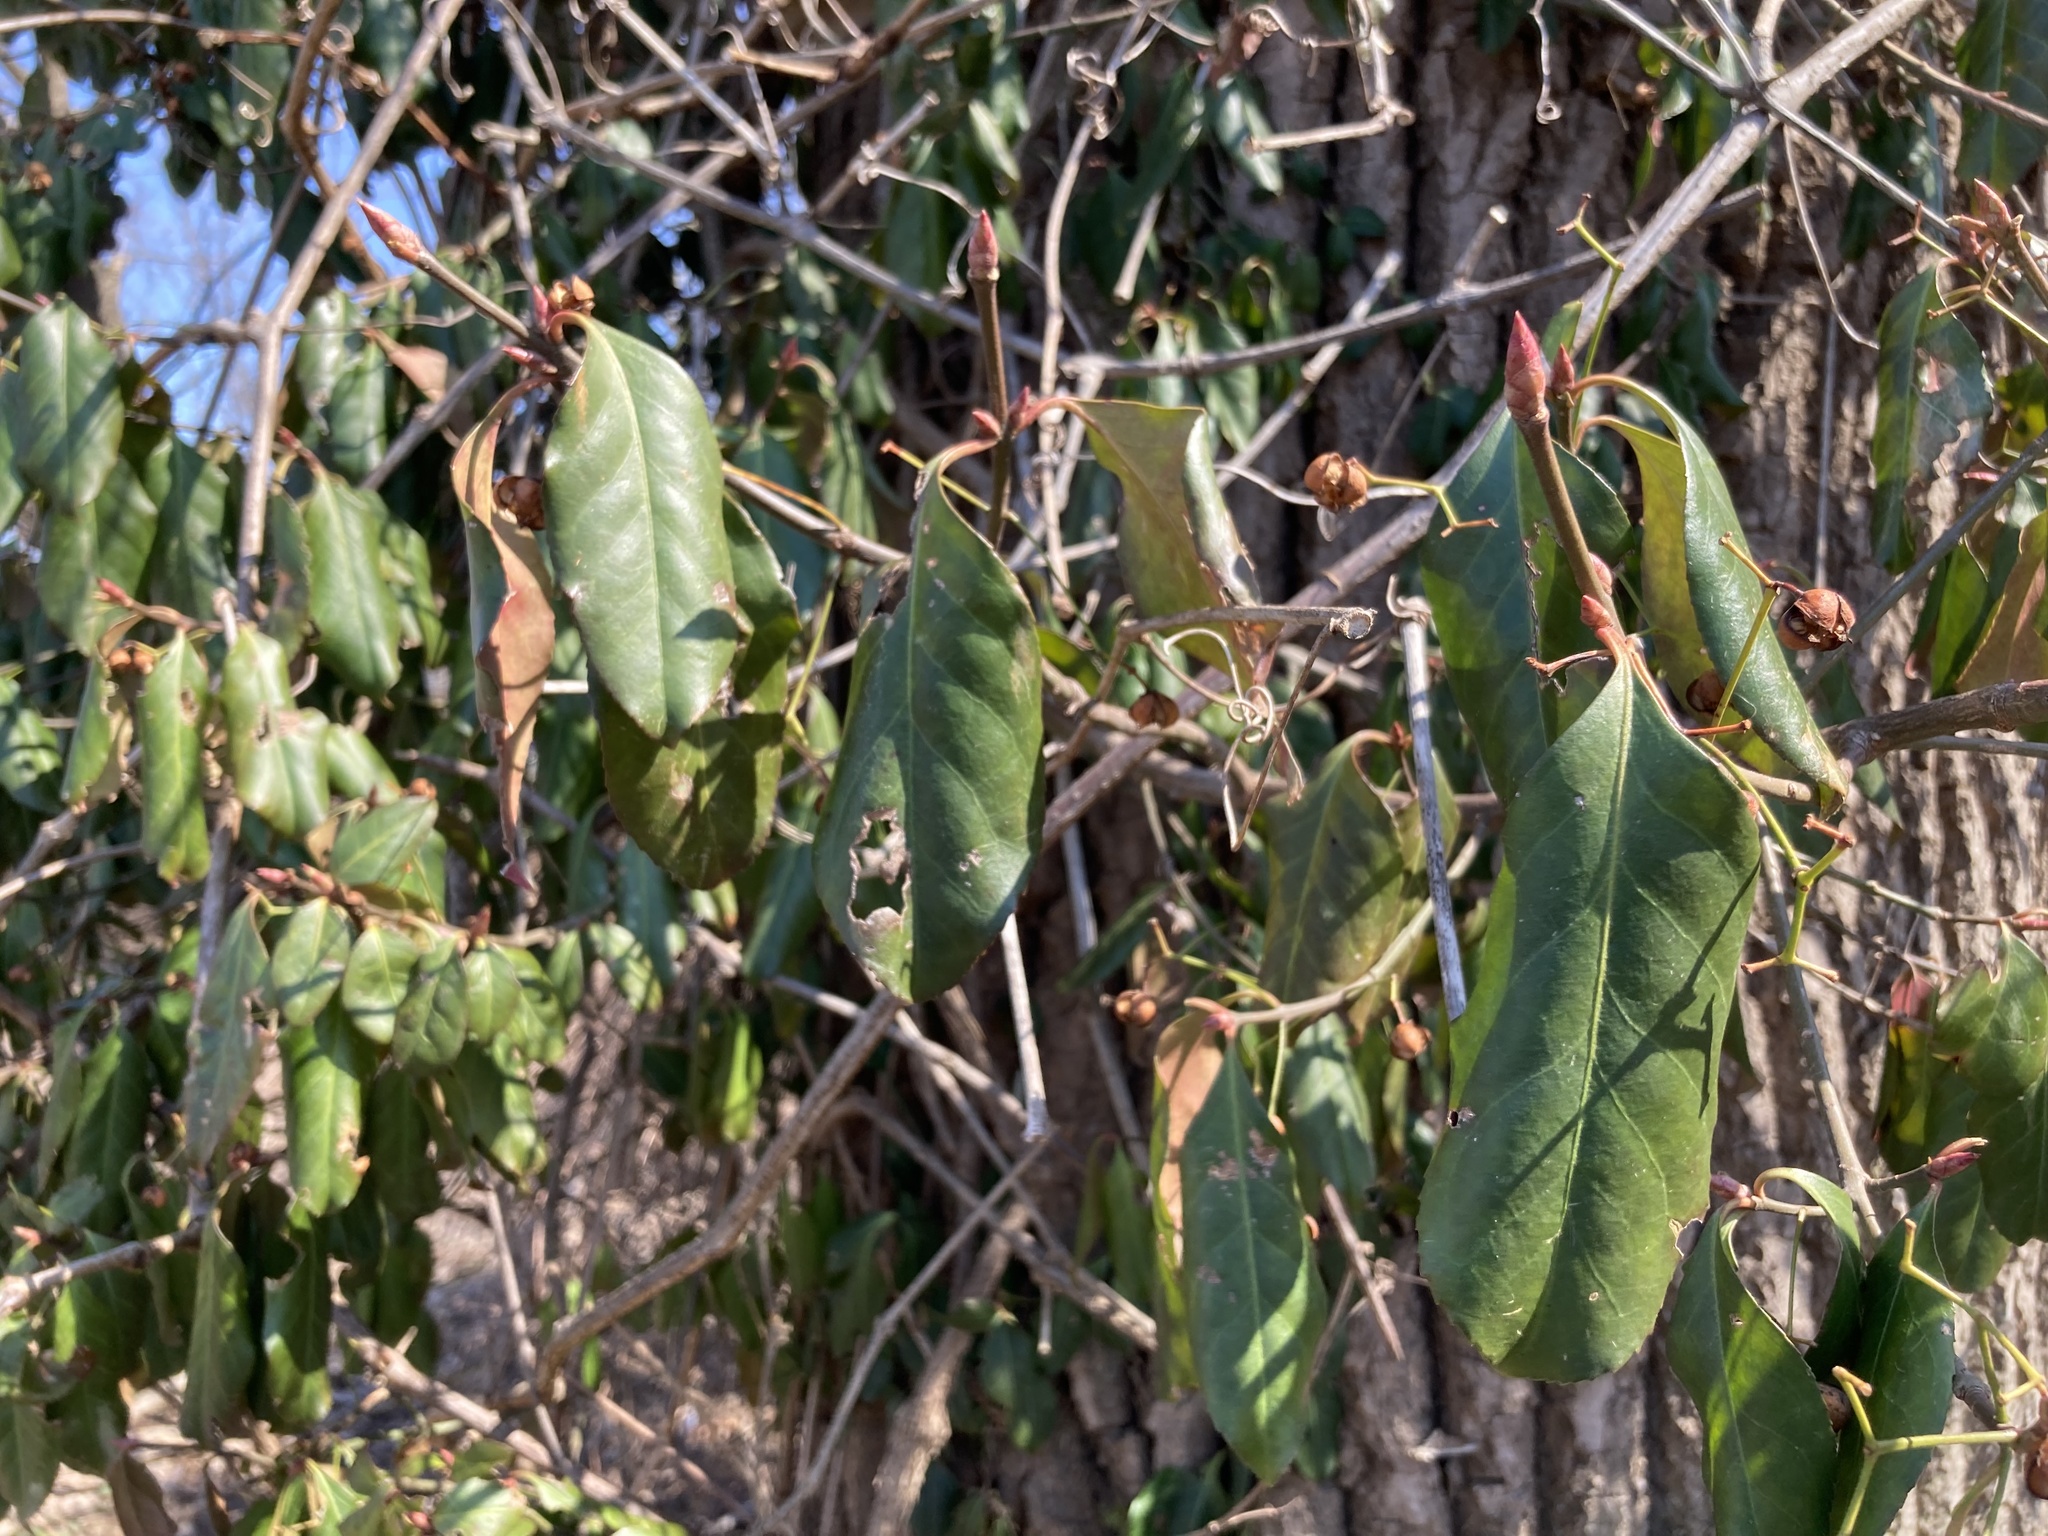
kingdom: Plantae
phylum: Tracheophyta
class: Magnoliopsida
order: Celastrales
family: Celastraceae
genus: Euonymus
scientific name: Euonymus fortunei
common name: Climbing euonymus
